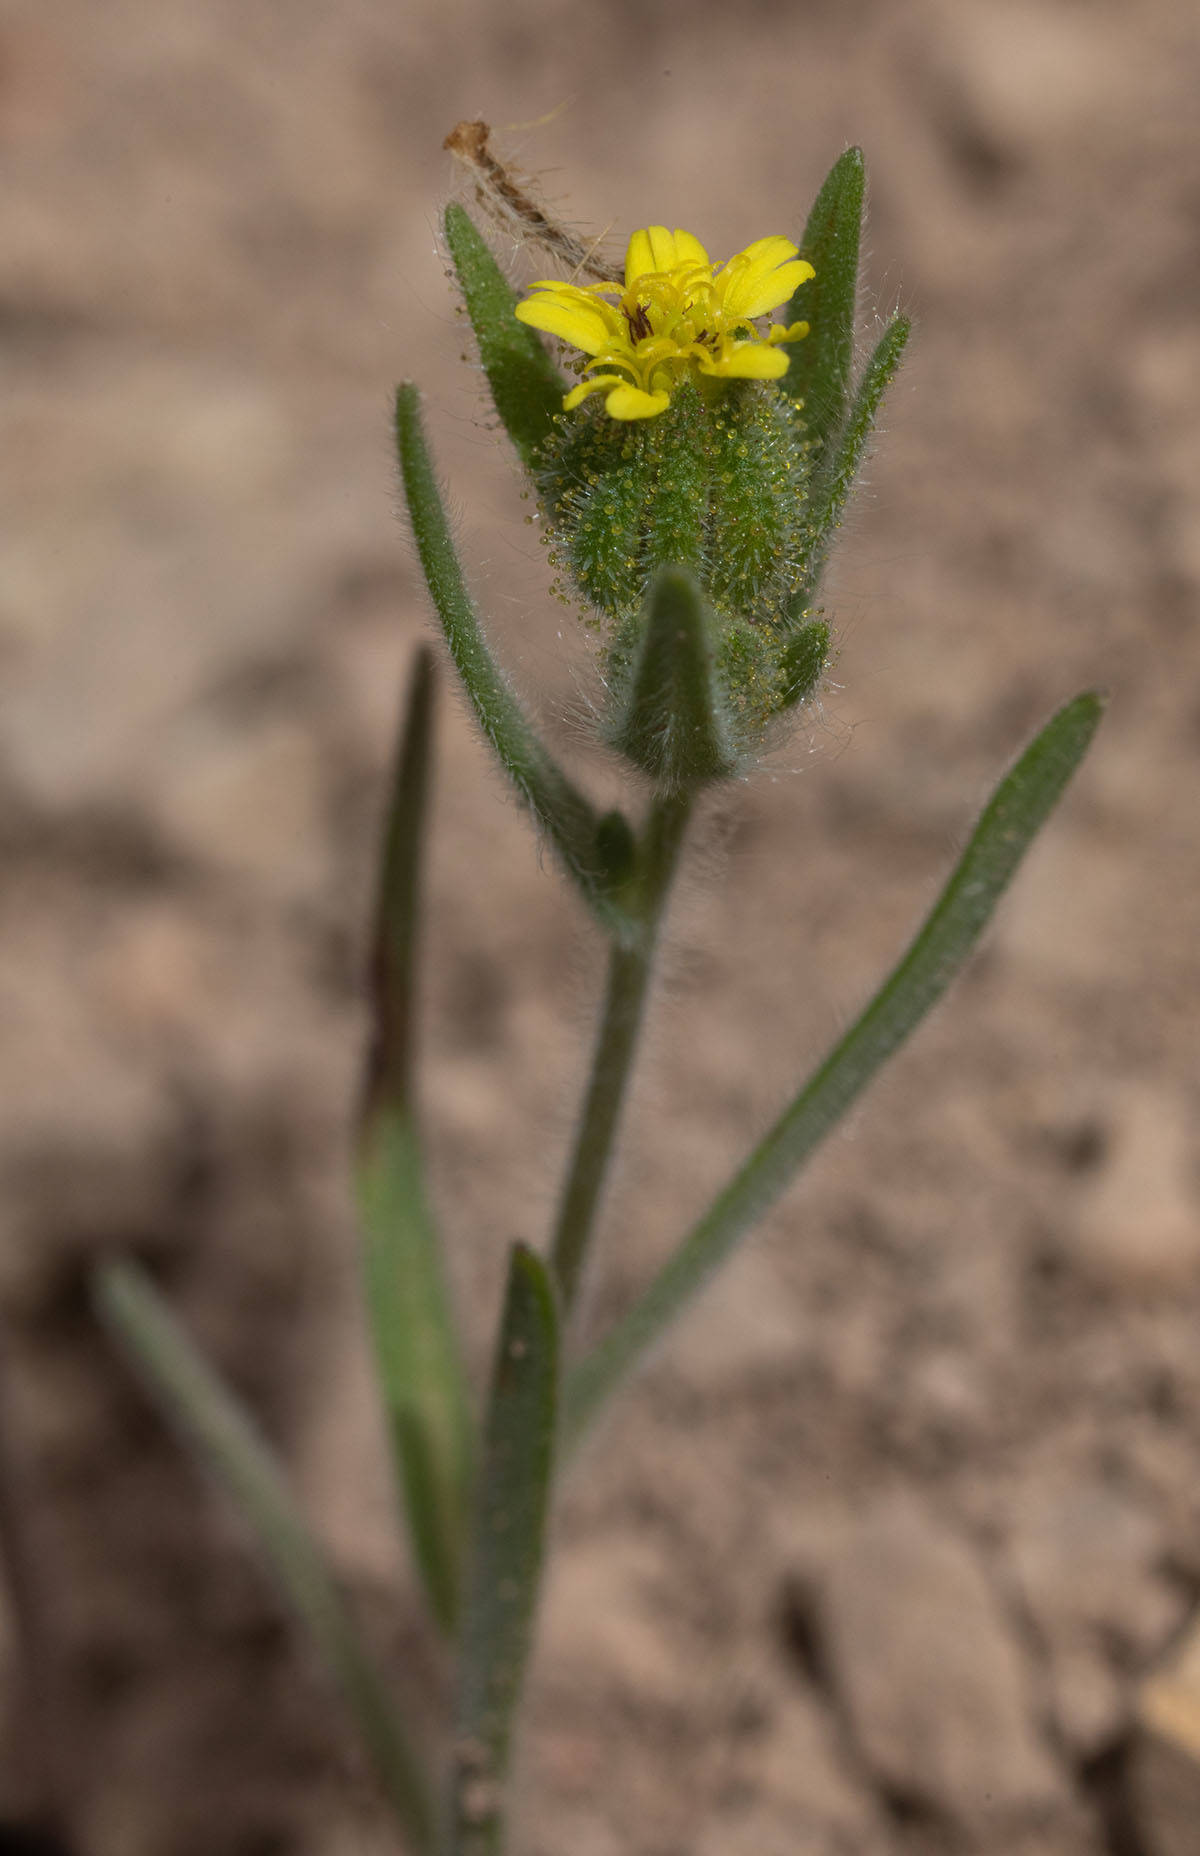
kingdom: Plantae
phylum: Tracheophyta
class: Magnoliopsida
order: Asterales
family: Asteraceae
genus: Madia
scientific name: Madia gracilis
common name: Grassy tarweed
